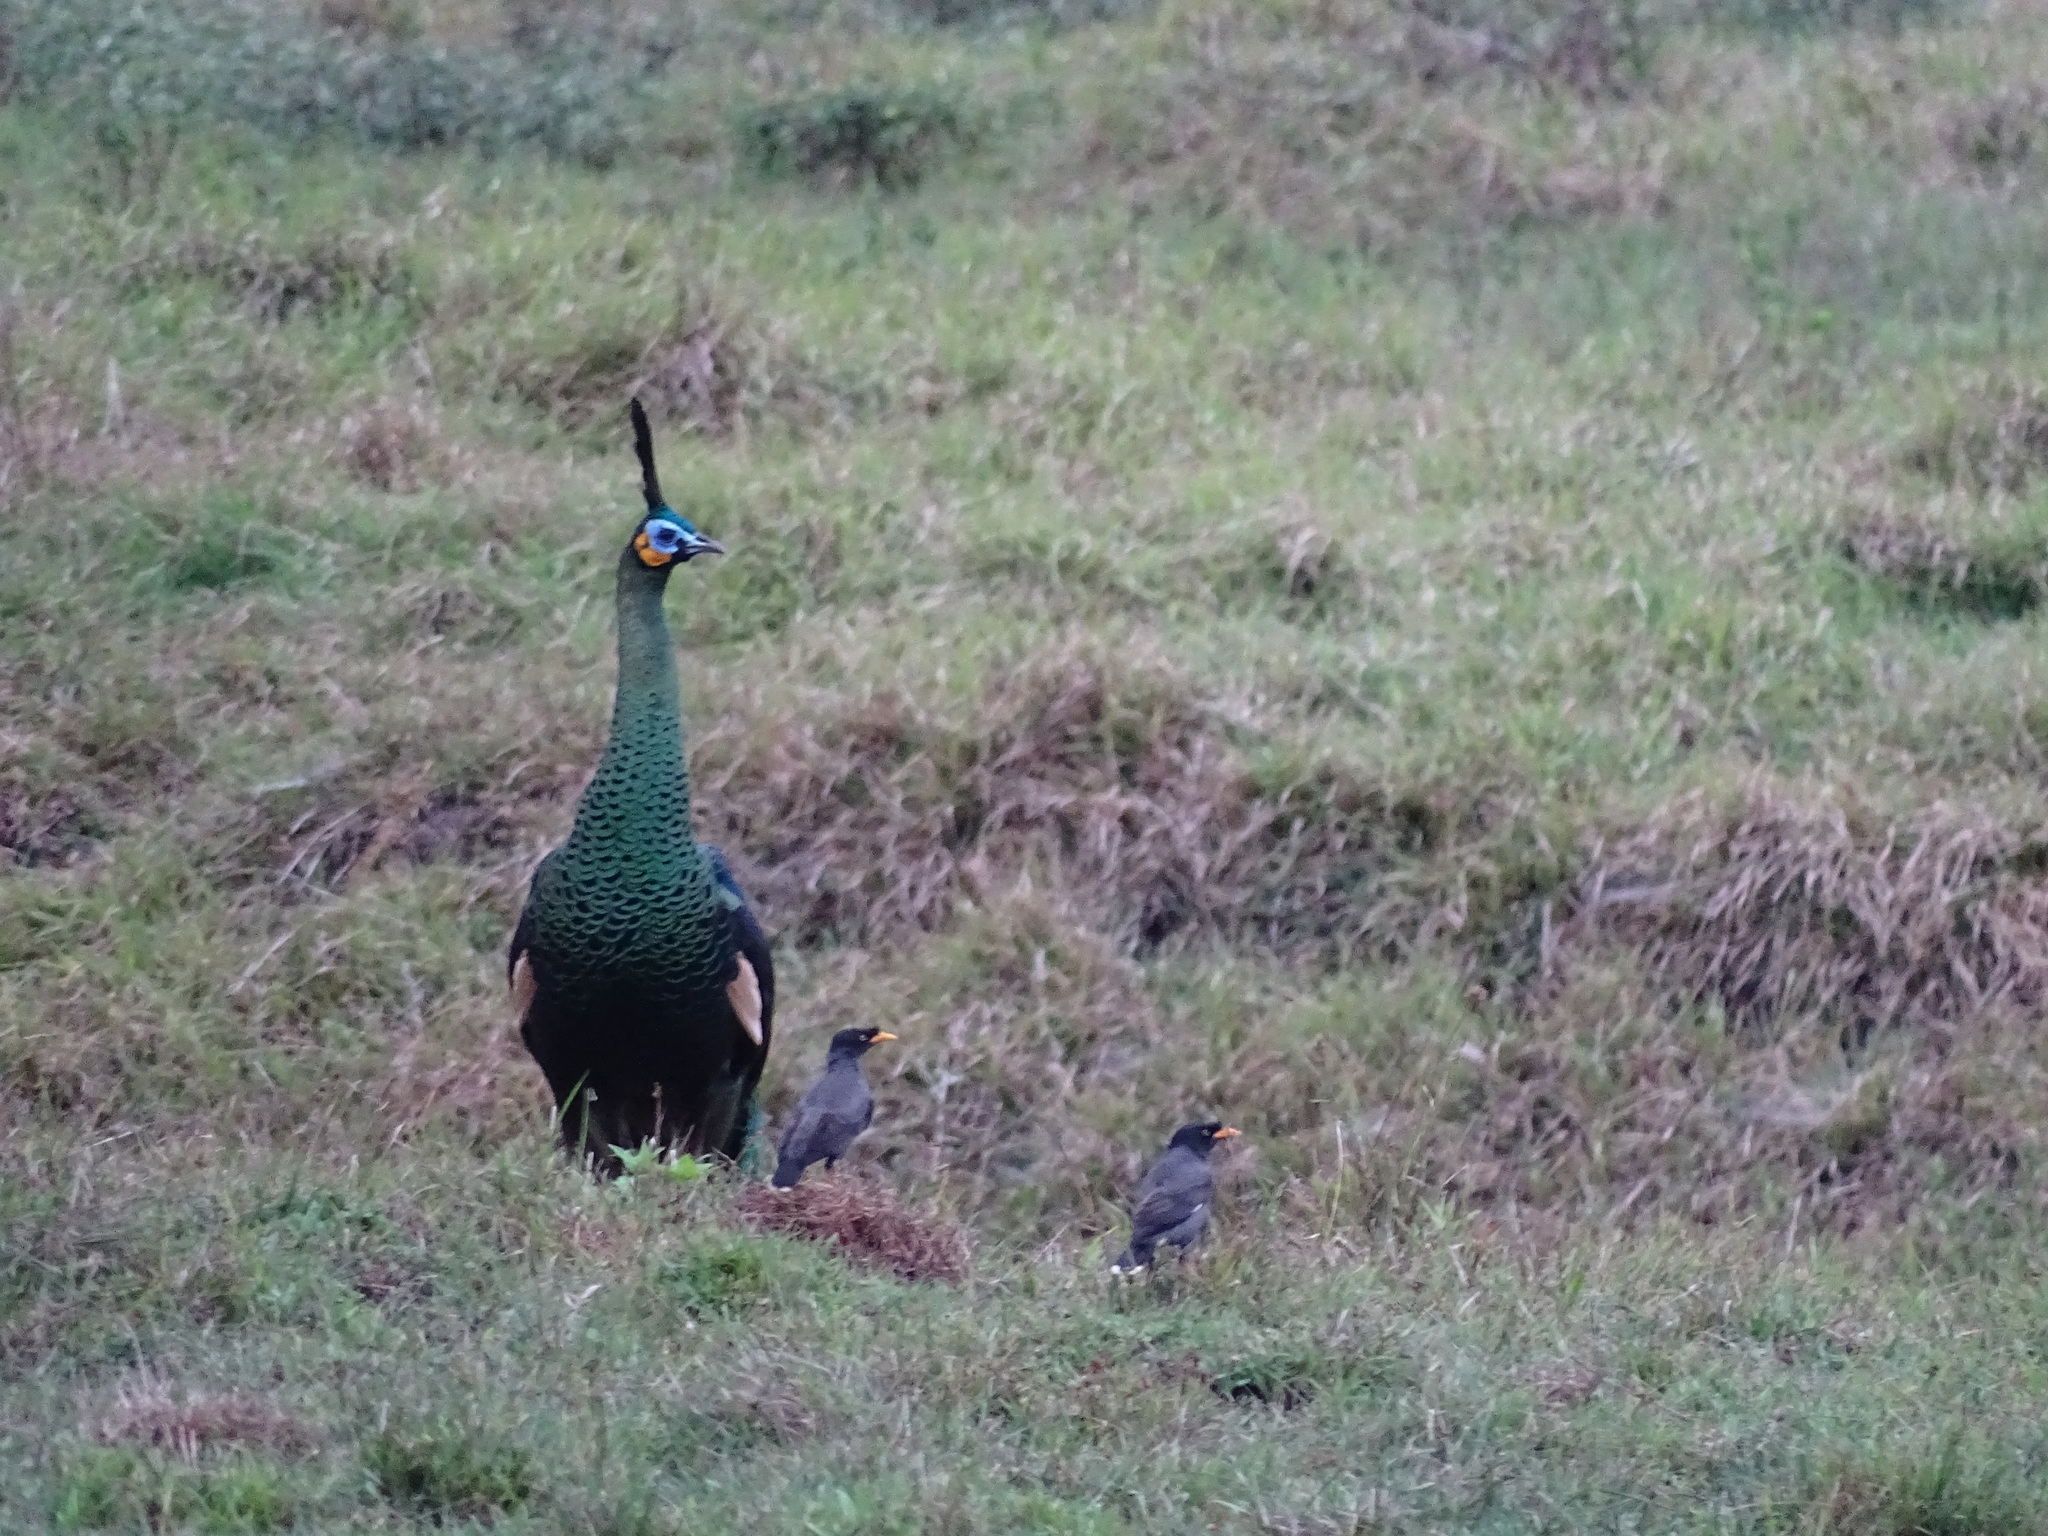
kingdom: Animalia
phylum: Chordata
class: Aves
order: Galliformes
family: Phasianidae
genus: Pavo
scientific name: Pavo muticus
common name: Green peafowl
